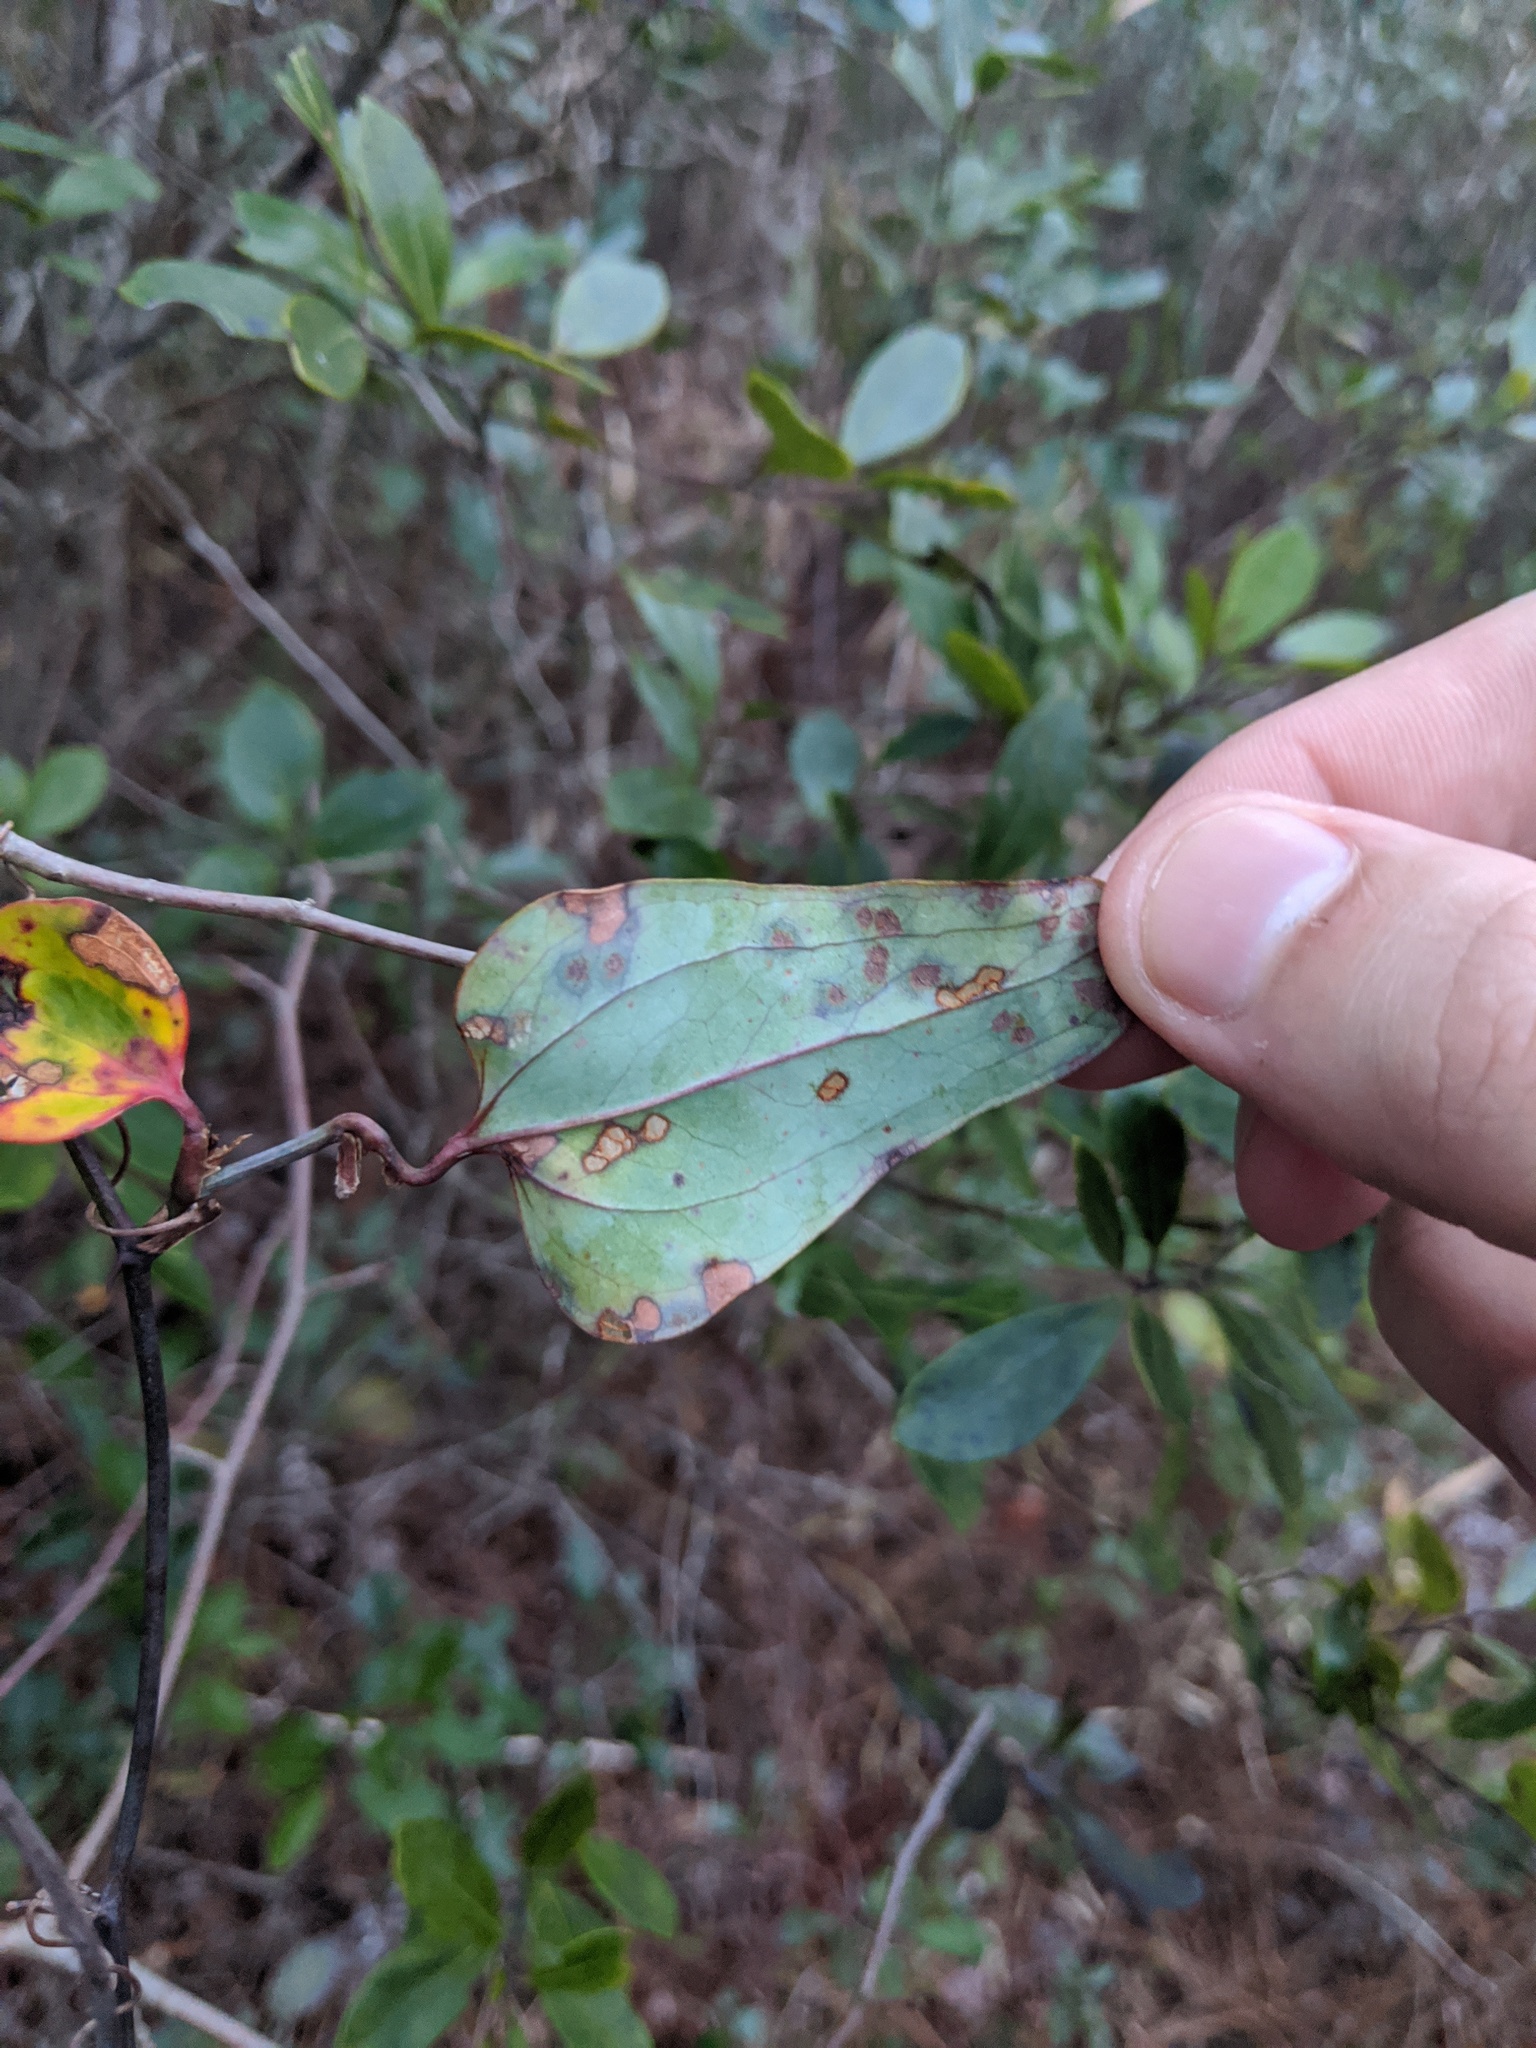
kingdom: Plantae
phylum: Tracheophyta
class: Liliopsida
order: Liliales
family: Smilacaceae
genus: Smilax
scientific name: Smilax glauca
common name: Cat greenbrier
